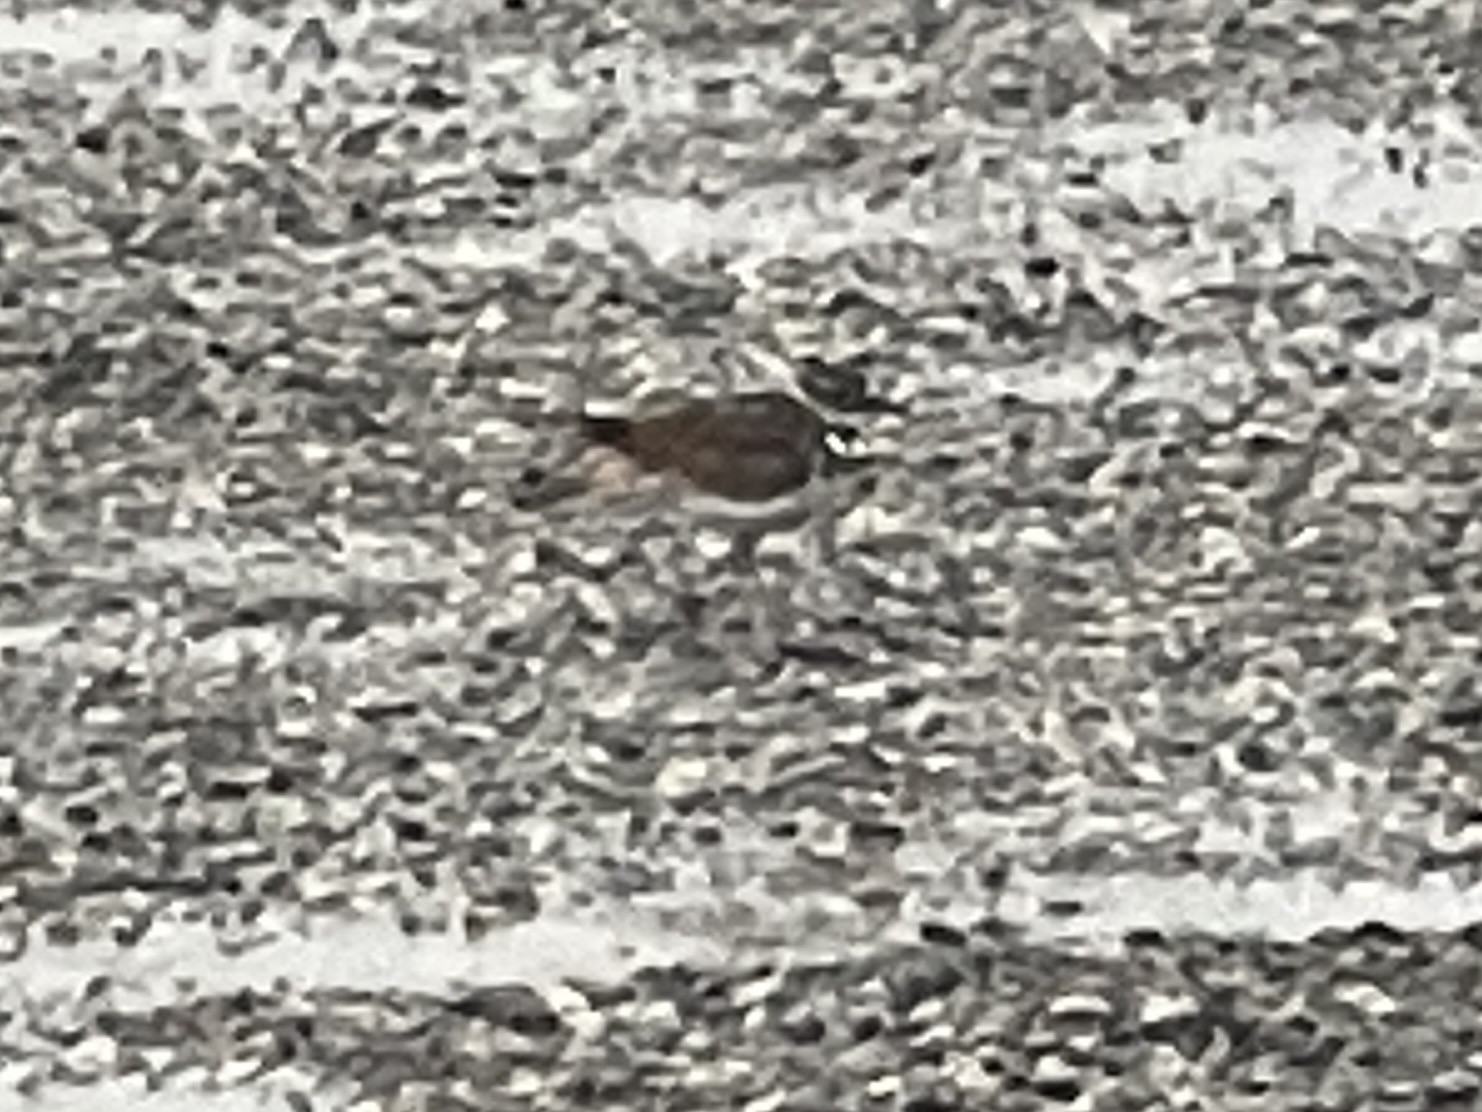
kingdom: Animalia
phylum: Chordata
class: Aves
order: Charadriiformes
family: Charadriidae
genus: Charadrius
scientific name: Charadrius vociferus
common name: Killdeer
